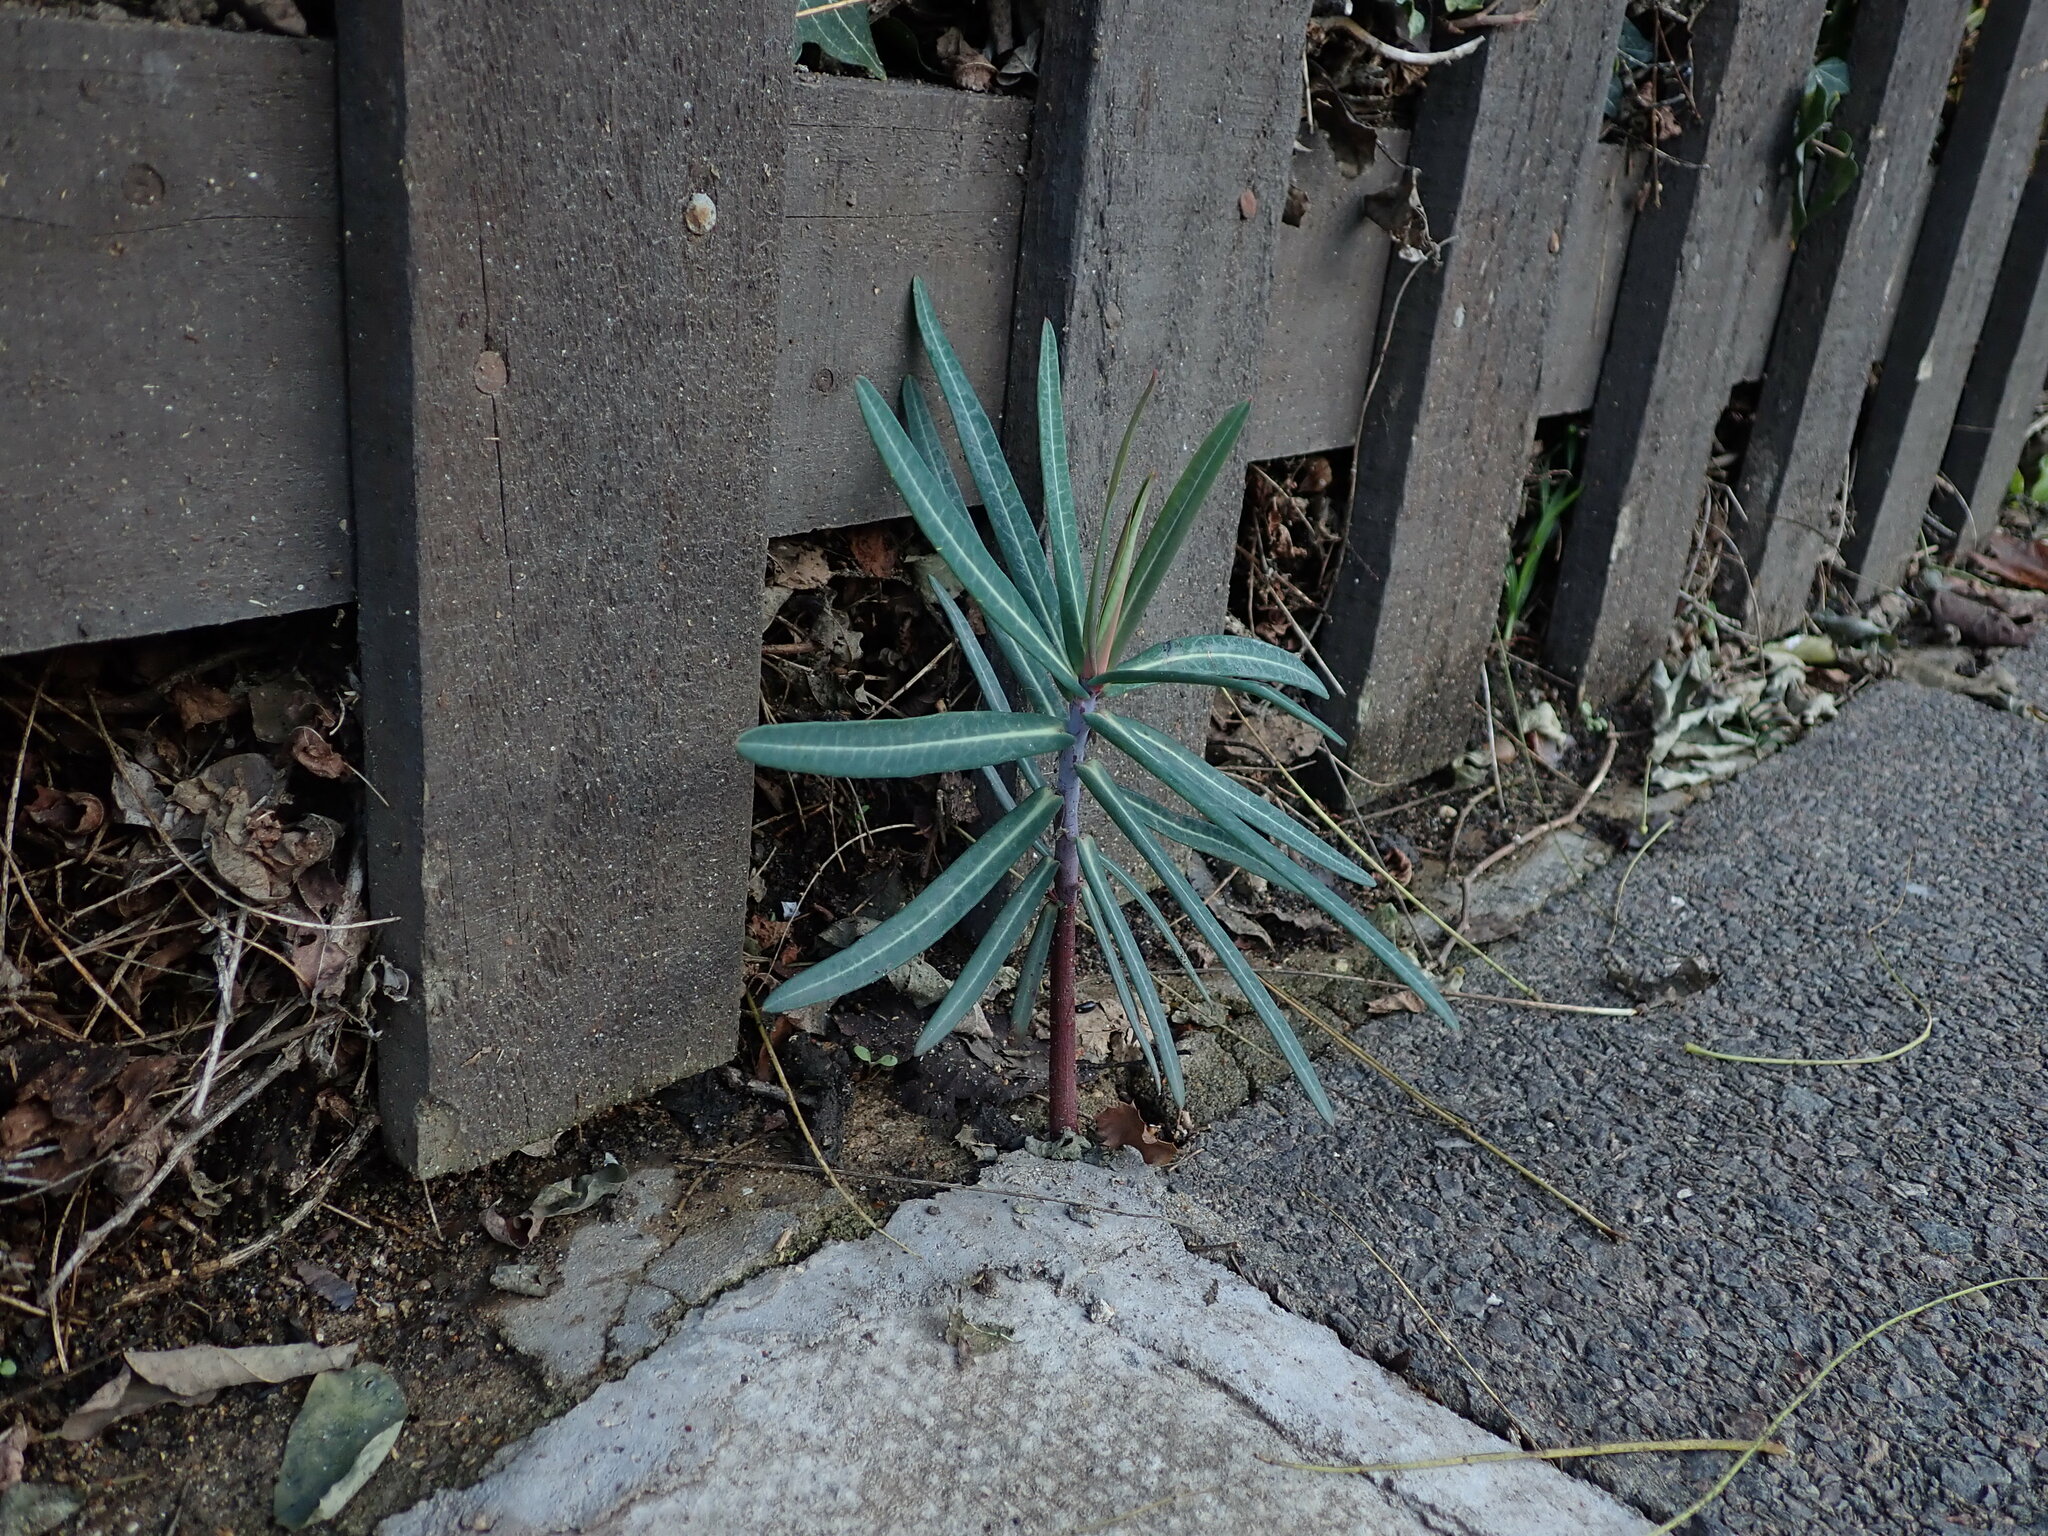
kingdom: Plantae
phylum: Tracheophyta
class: Magnoliopsida
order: Malpighiales
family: Euphorbiaceae
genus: Euphorbia
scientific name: Euphorbia lathyris
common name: Caper spurge
